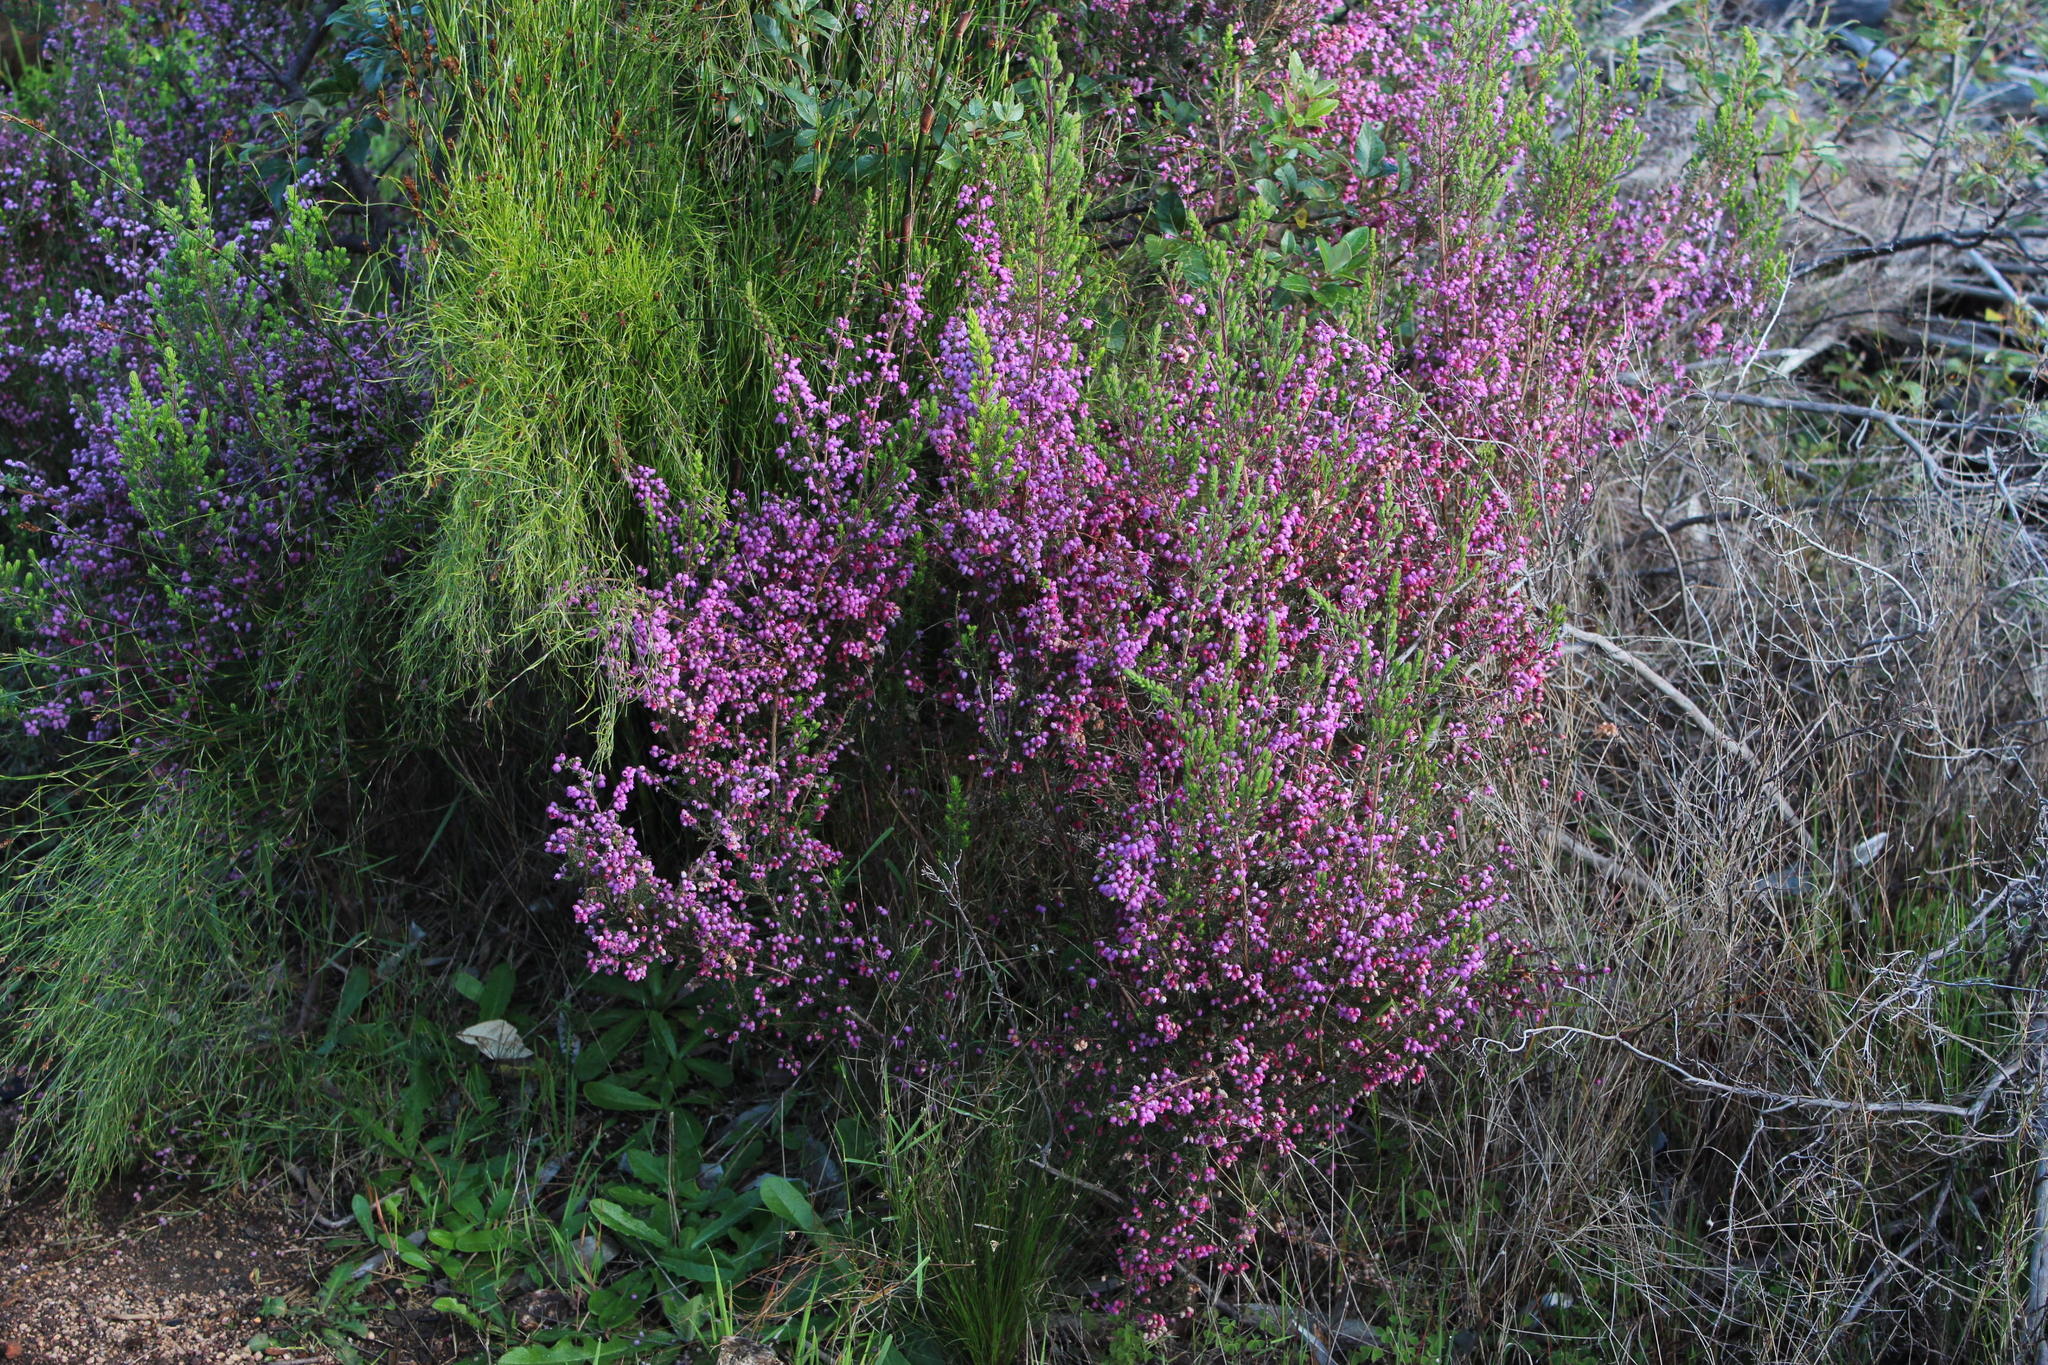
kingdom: Plantae
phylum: Tracheophyta
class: Magnoliopsida
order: Ericales
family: Ericaceae
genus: Erica
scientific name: Erica hirtiflora
